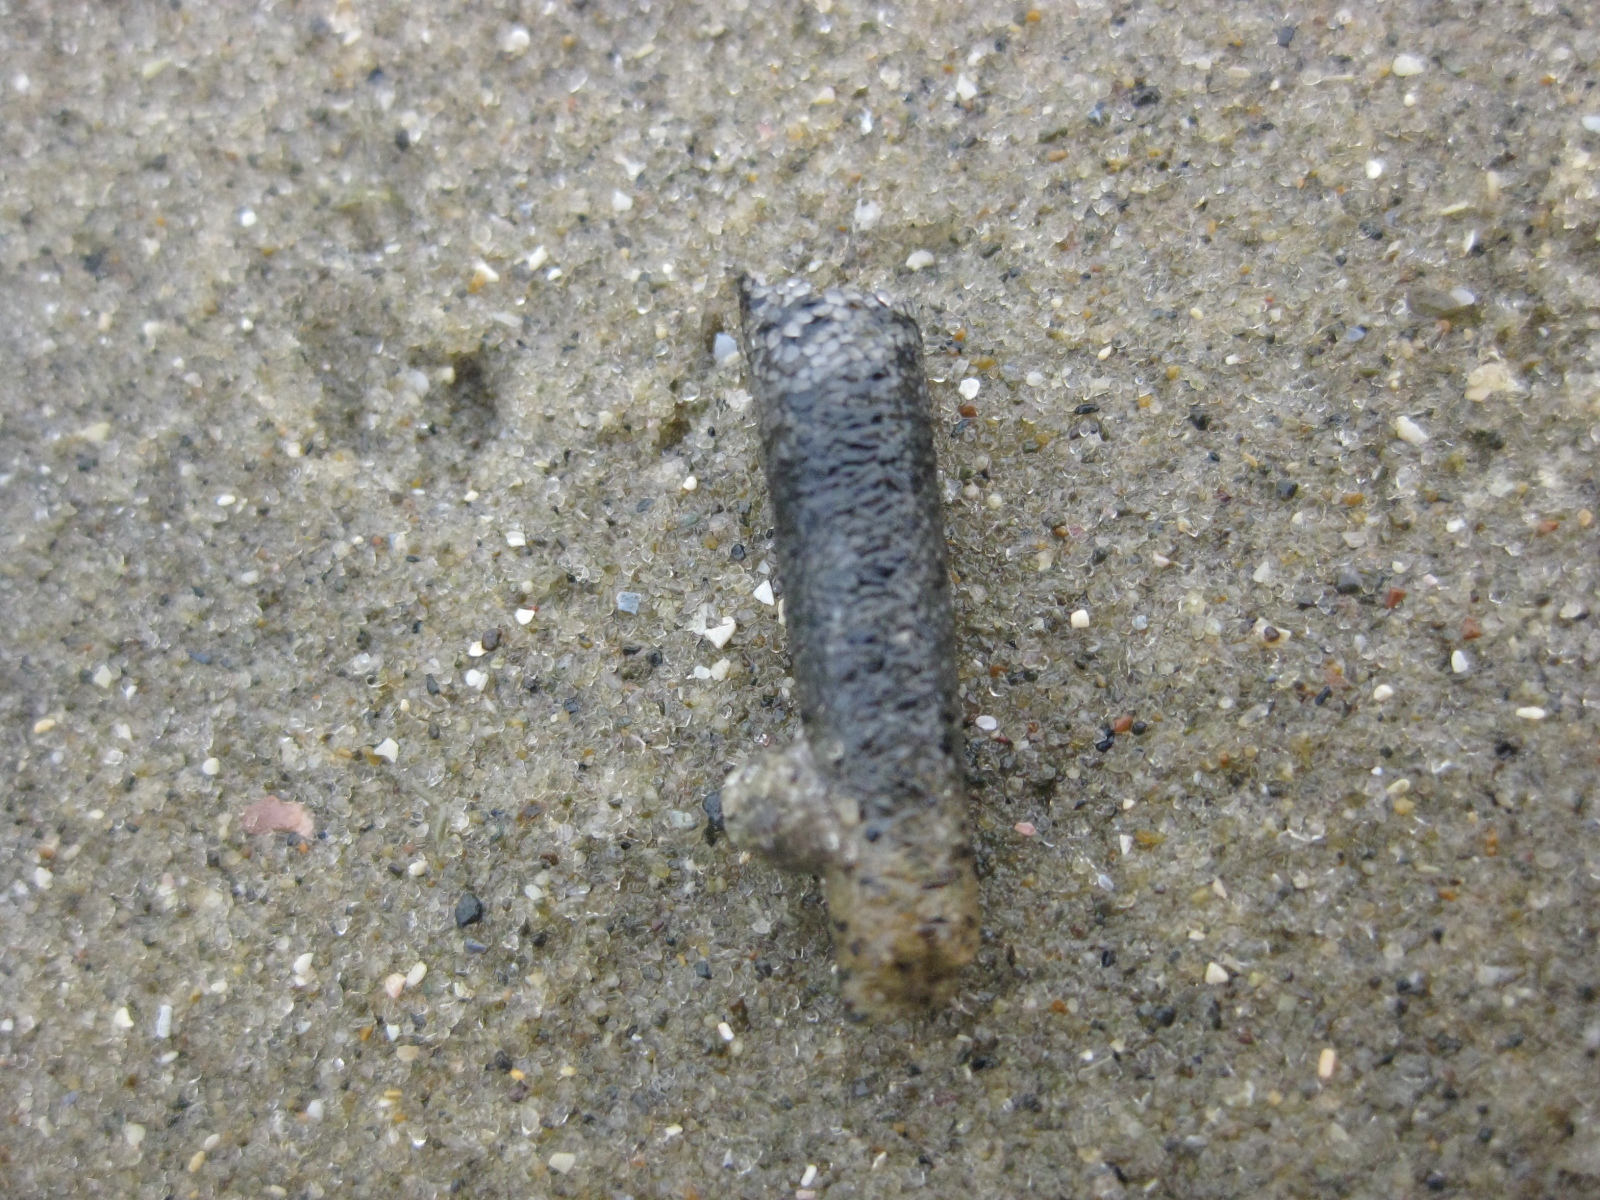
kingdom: Animalia
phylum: Annelida
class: Polychaeta
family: Pectinariidae
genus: Lagis
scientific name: Lagis australis
